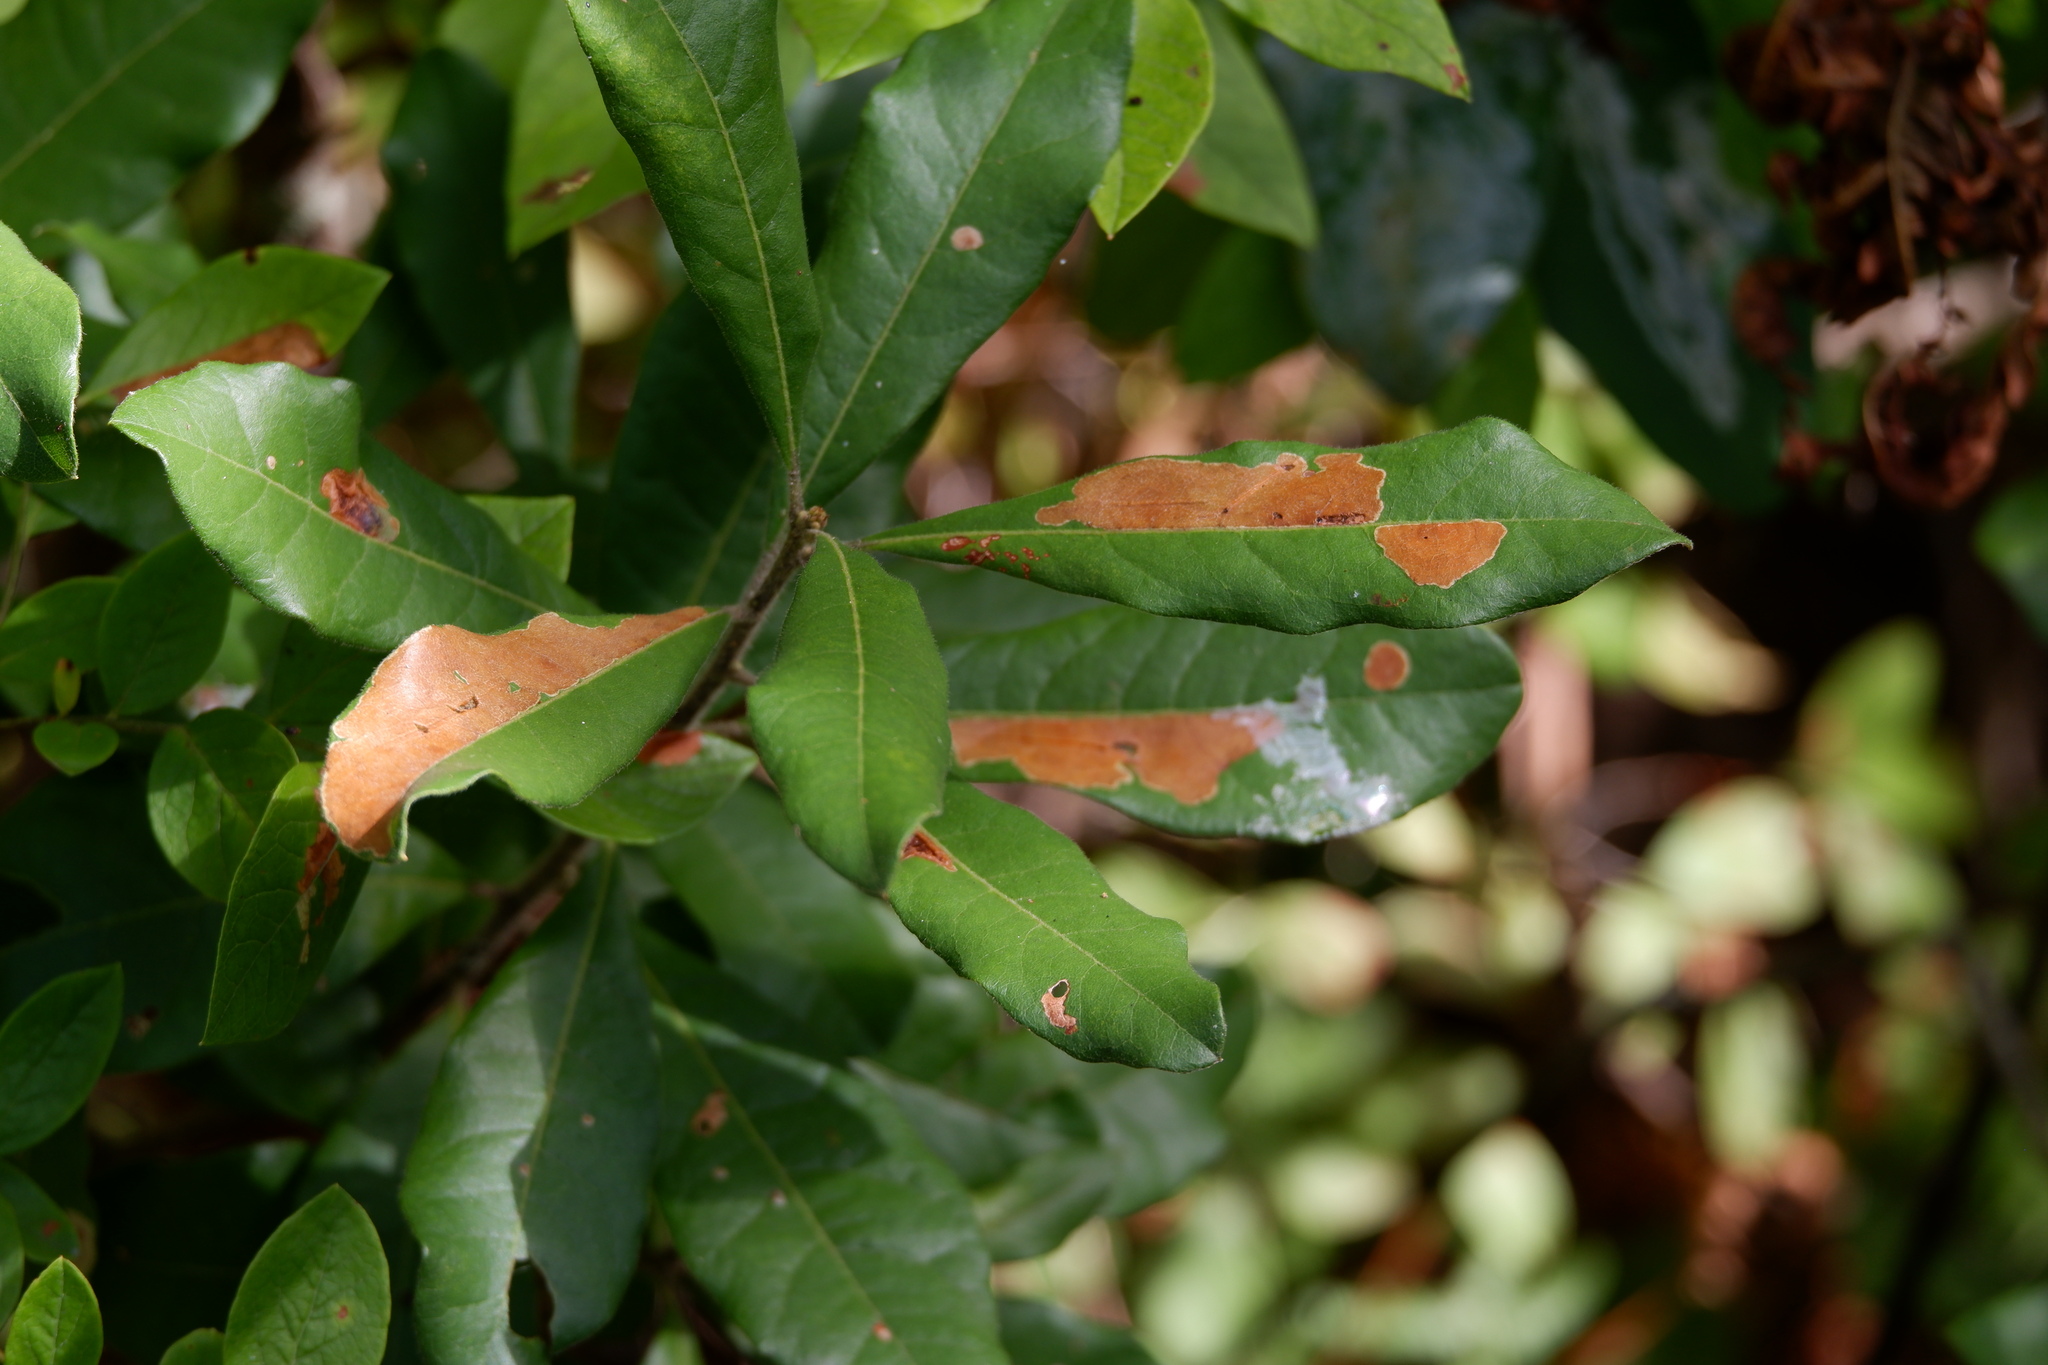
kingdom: Animalia
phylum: Arthropoda
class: Insecta
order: Lepidoptera
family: Gracillariidae
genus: Cameraria
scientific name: Cameraria picturatella
